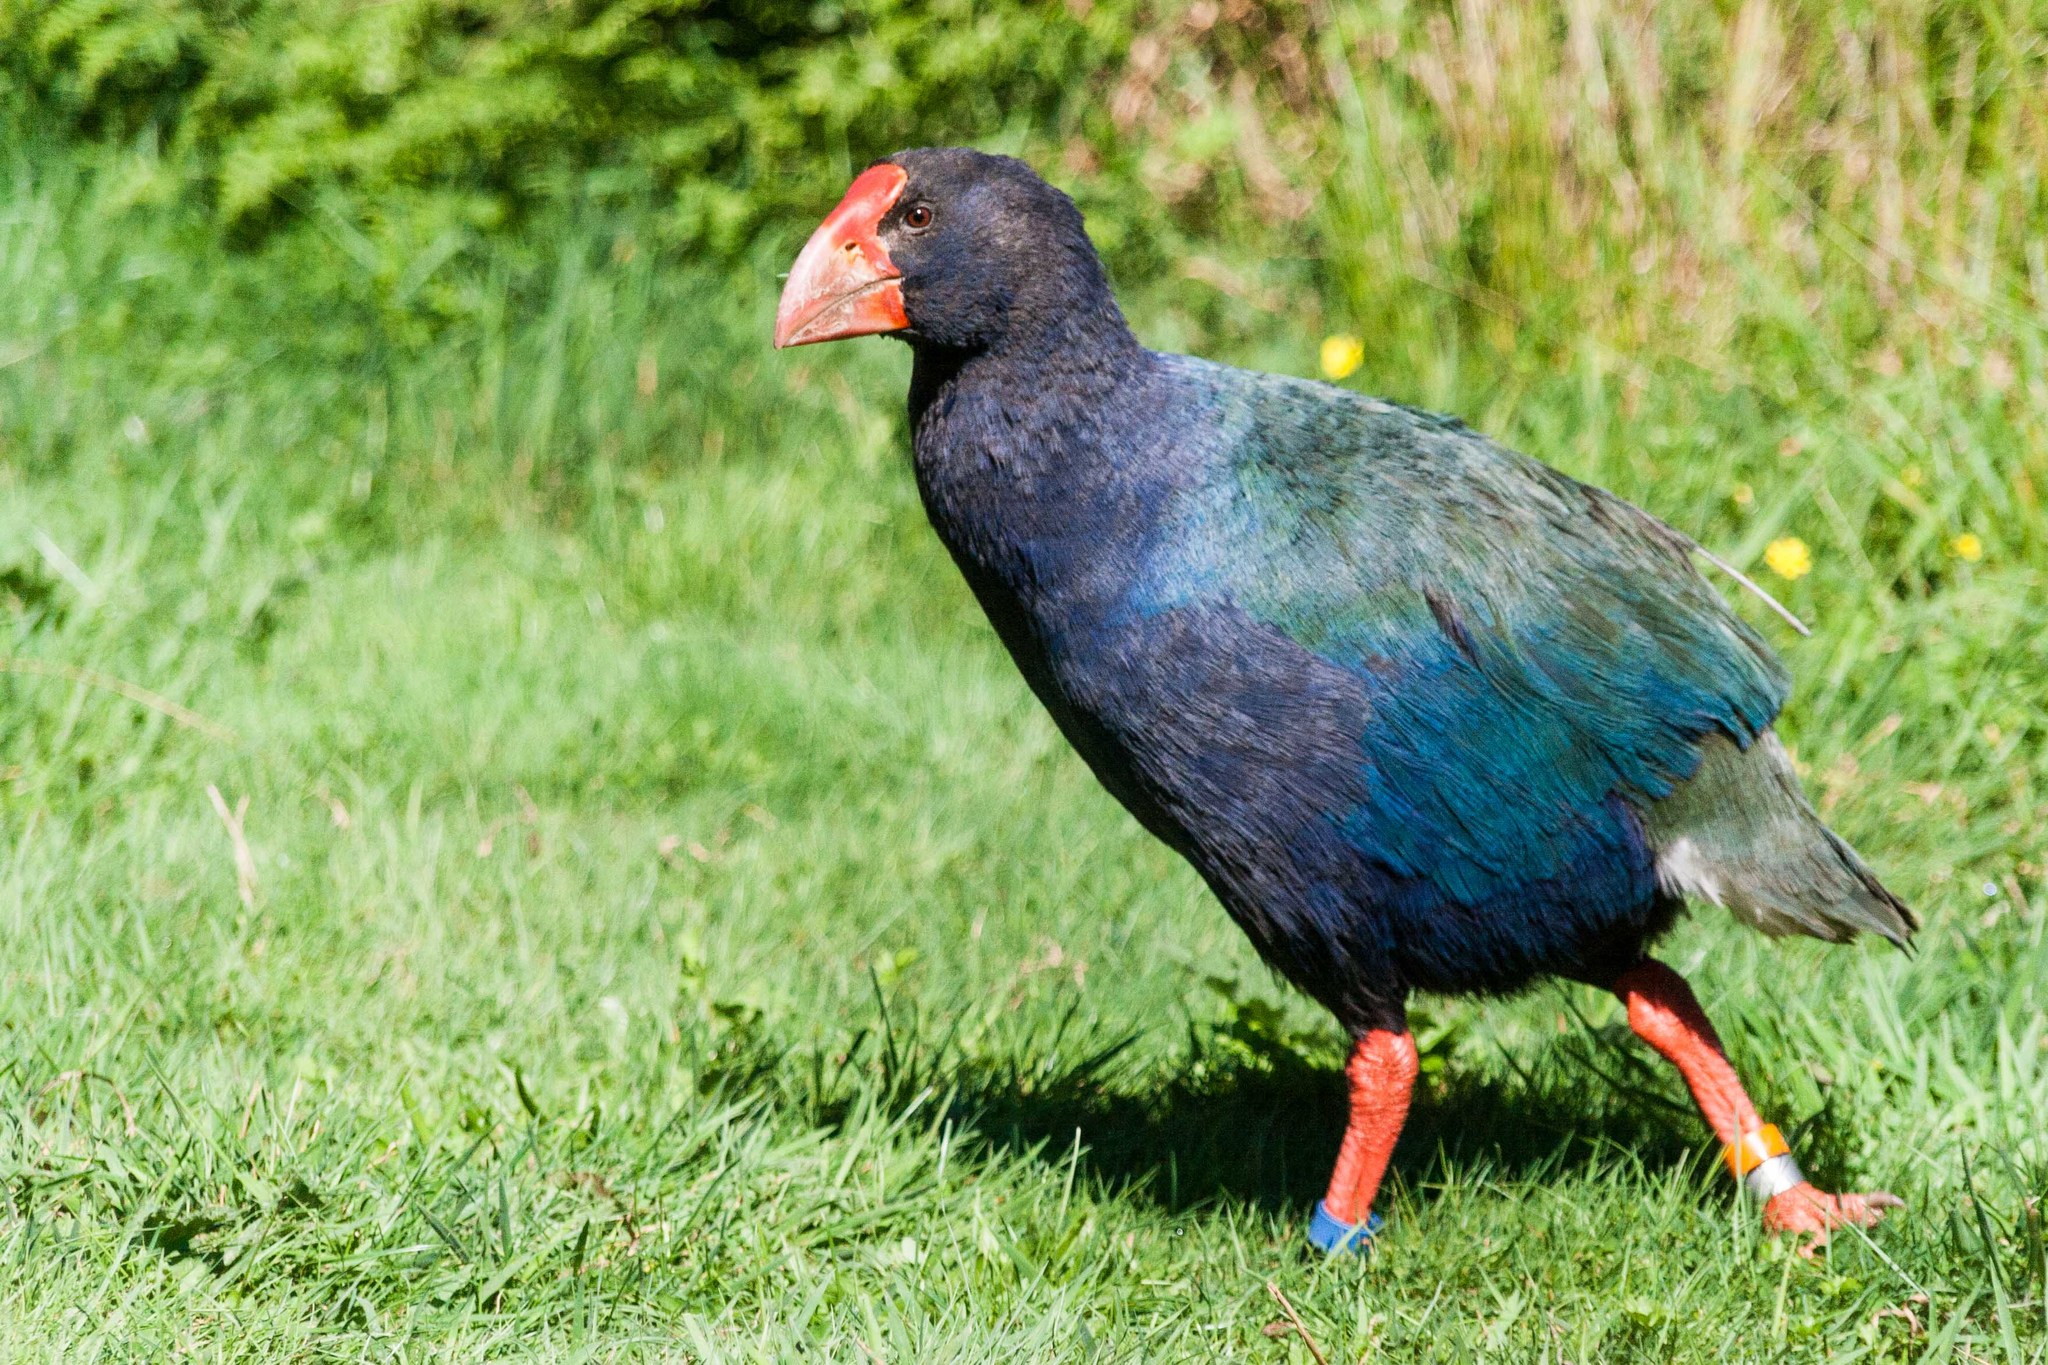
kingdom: Animalia
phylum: Chordata
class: Aves
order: Gruiformes
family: Rallidae
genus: Porphyrio
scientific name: Porphyrio hochstetteri
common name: South island takahe
